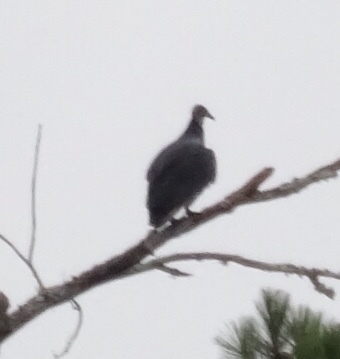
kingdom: Animalia
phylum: Chordata
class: Aves
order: Accipitriformes
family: Cathartidae
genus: Coragyps
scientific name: Coragyps atratus
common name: Black vulture
